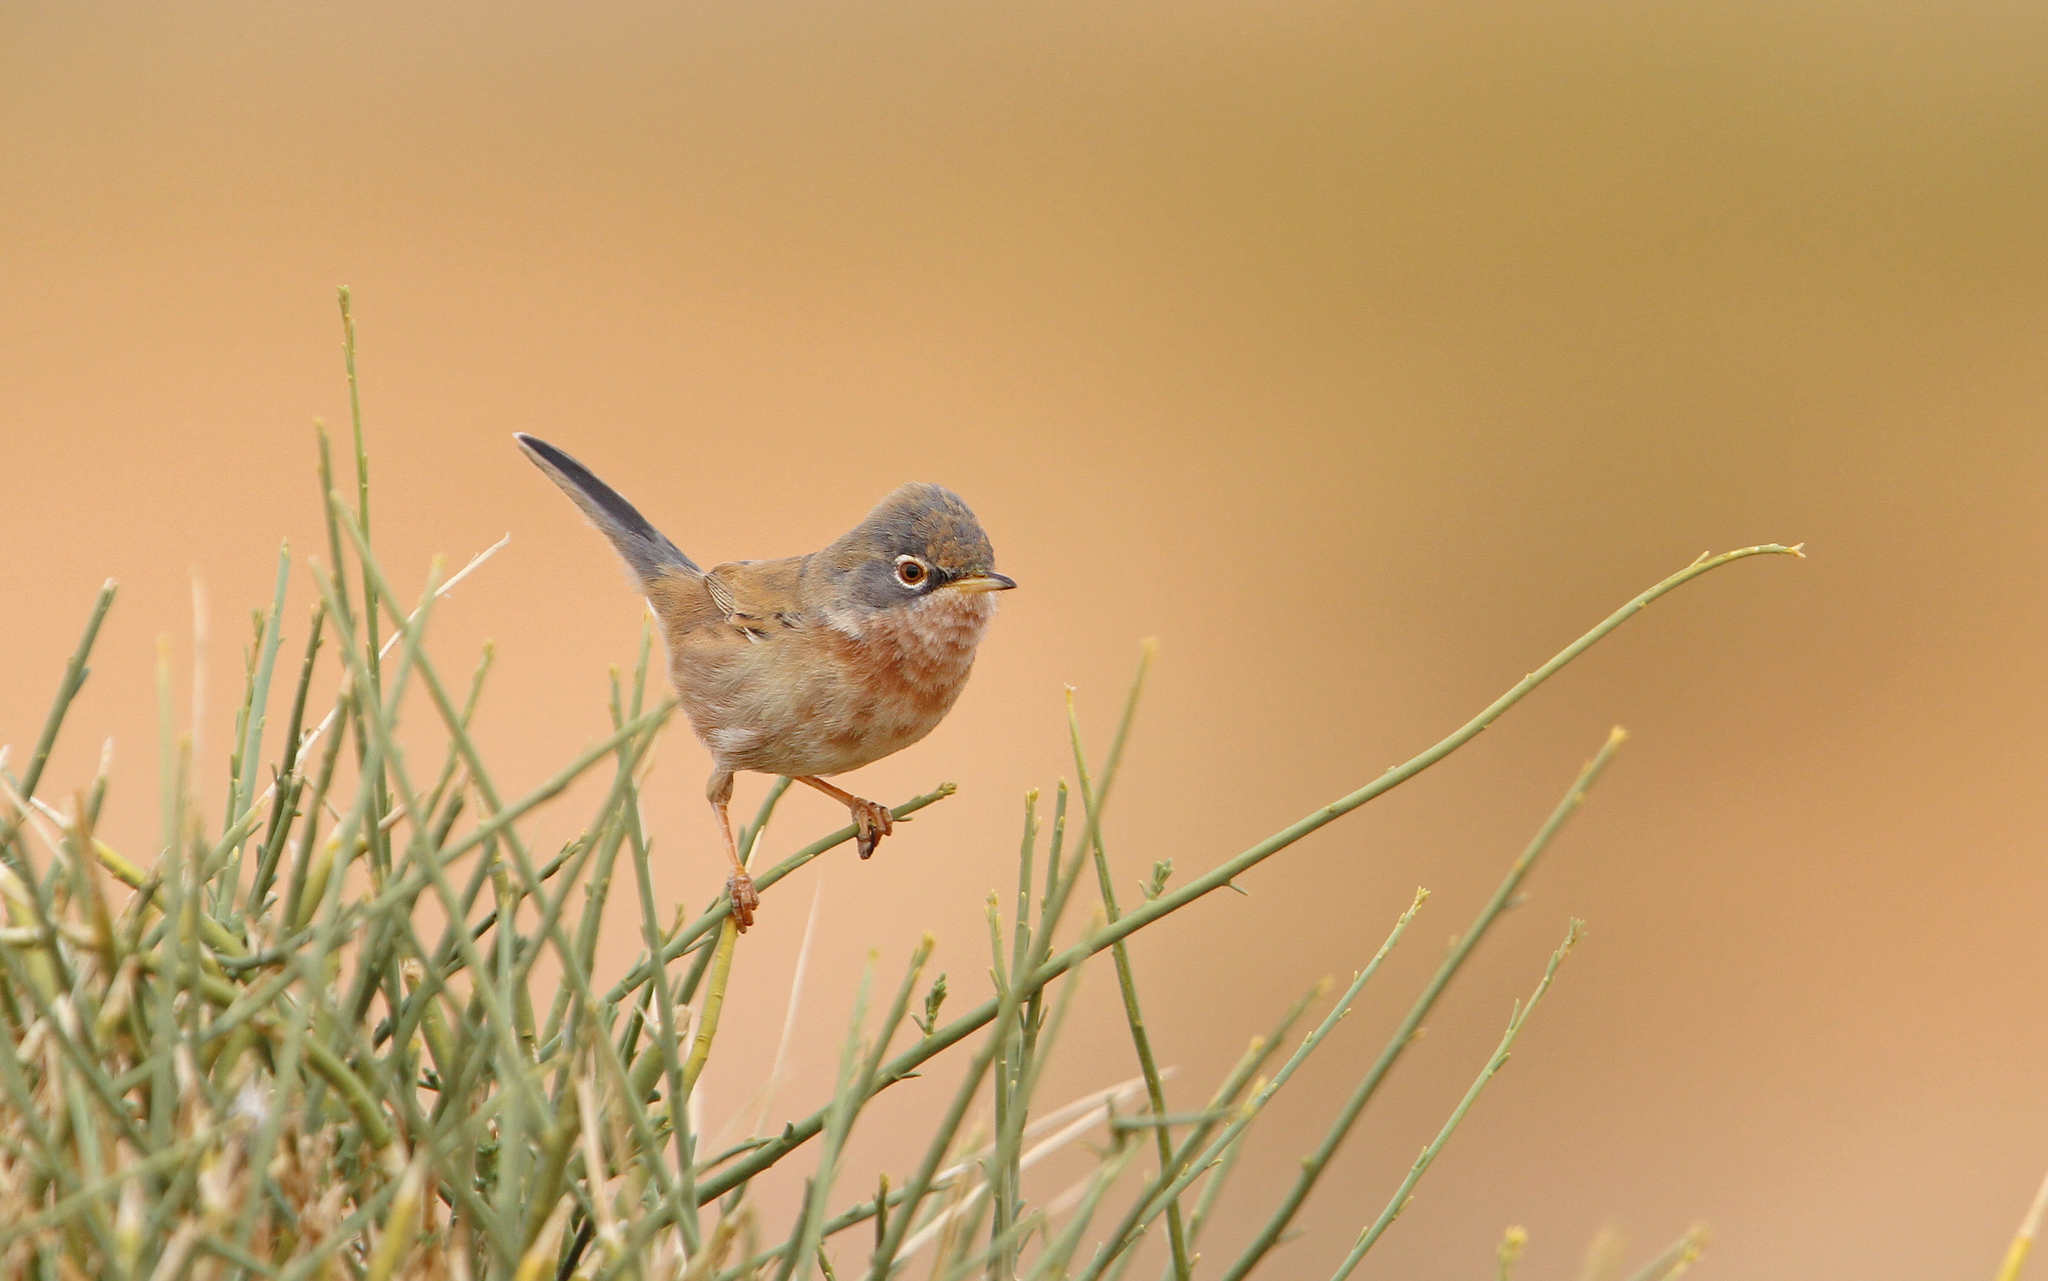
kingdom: Animalia
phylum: Chordata
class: Aves
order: Passeriformes
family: Sylviidae
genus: Sylvia
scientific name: Sylvia deserticola
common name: Tristram's warbler
